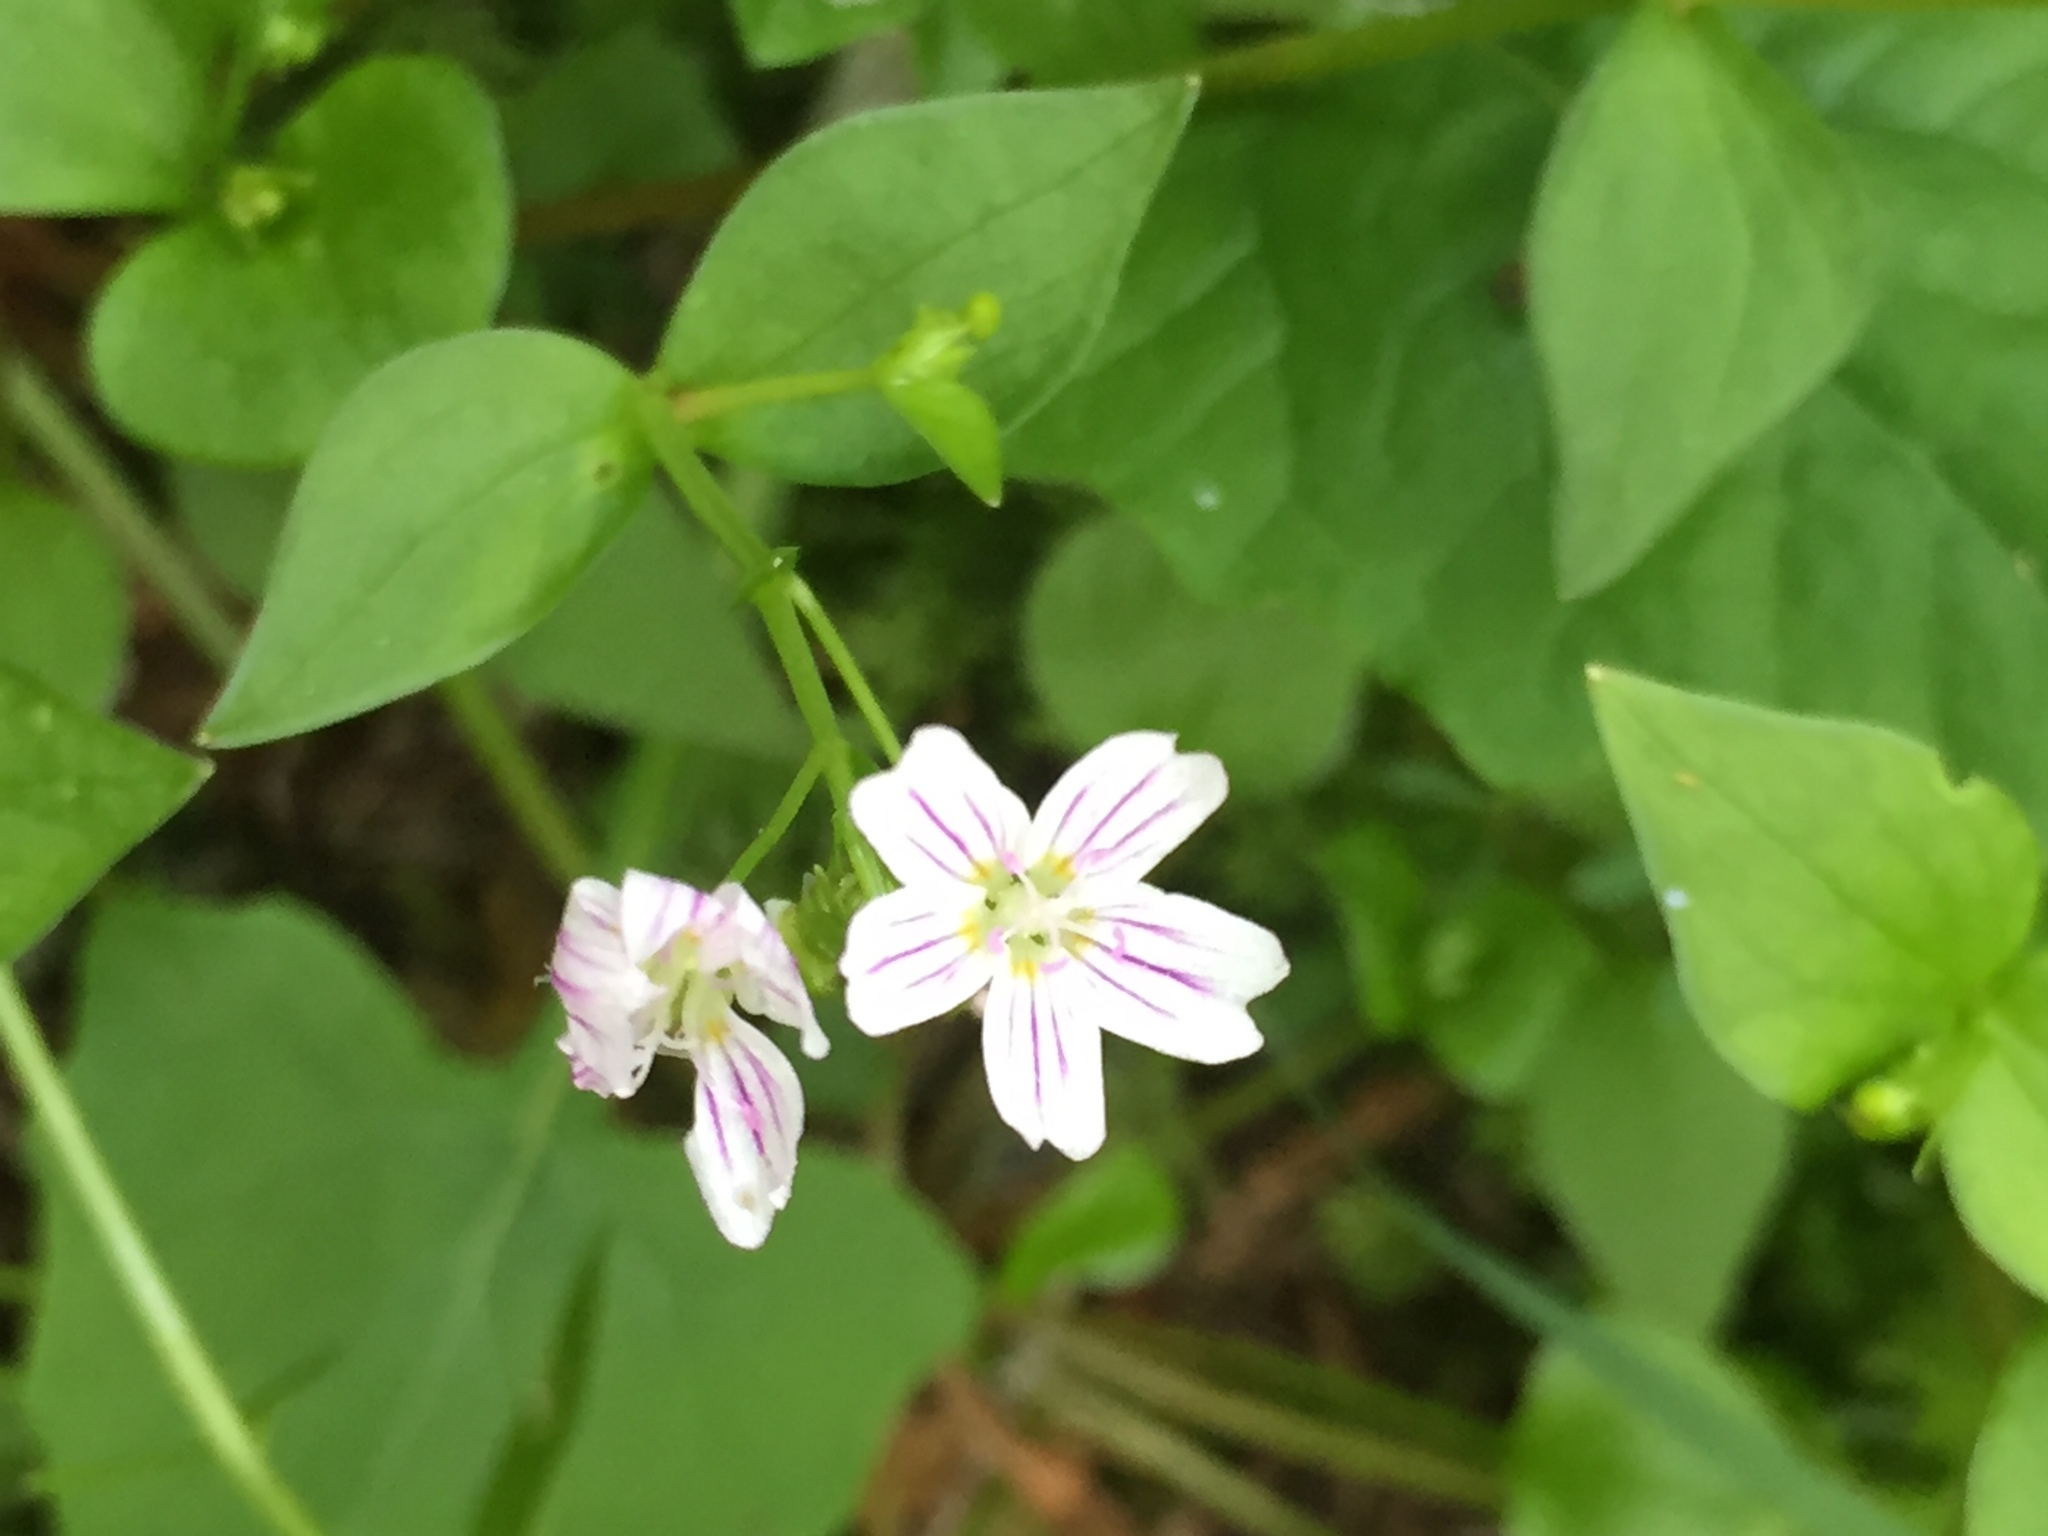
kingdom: Plantae
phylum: Tracheophyta
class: Magnoliopsida
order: Caryophyllales
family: Montiaceae
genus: Claytonia
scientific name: Claytonia sibirica
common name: Pink purslane
